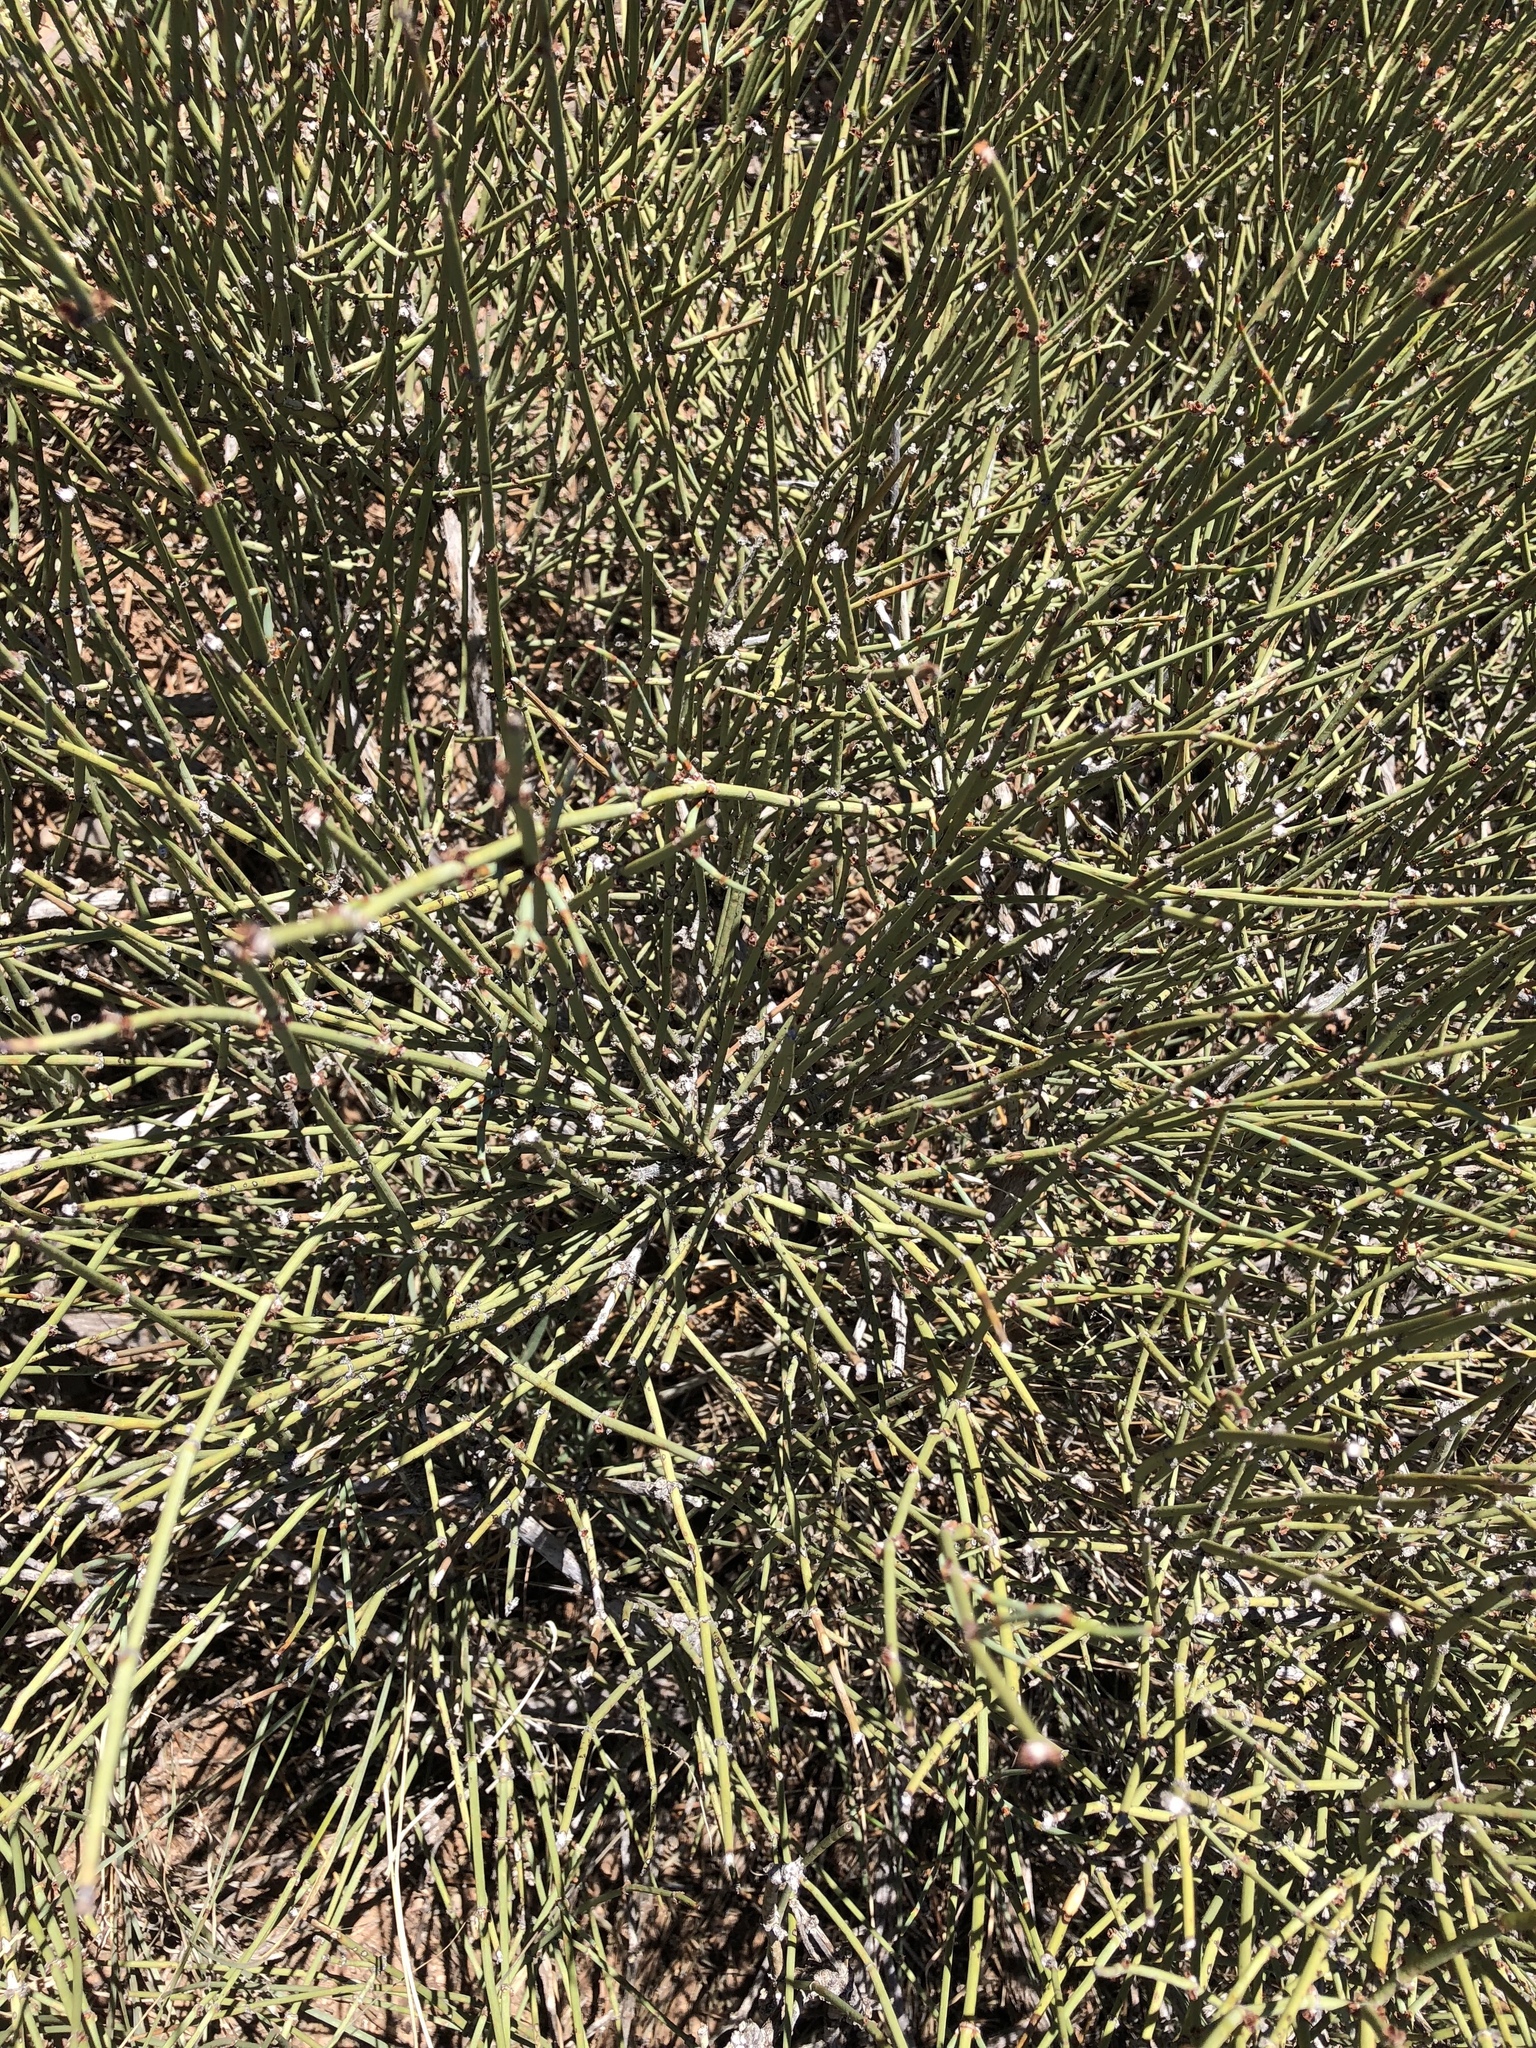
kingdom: Plantae
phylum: Tracheophyta
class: Gnetopsida
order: Ephedrales
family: Ephedraceae
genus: Ephedra
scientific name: Ephedra trifurca
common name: Mexican-tea
